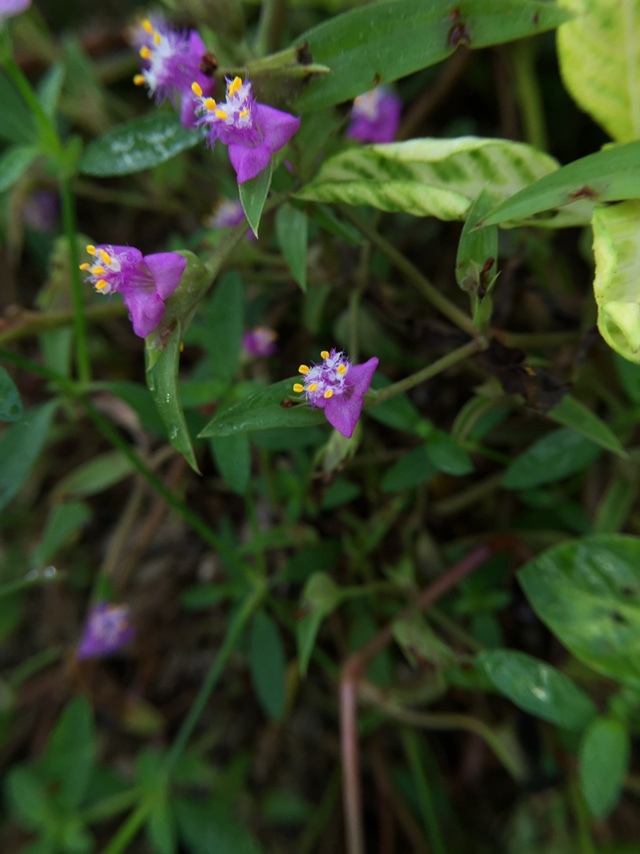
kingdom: Plantae
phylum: Tracheophyta
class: Liliopsida
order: Commelinales
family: Commelinaceae
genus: Cyanotis
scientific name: Cyanotis fasciculata
